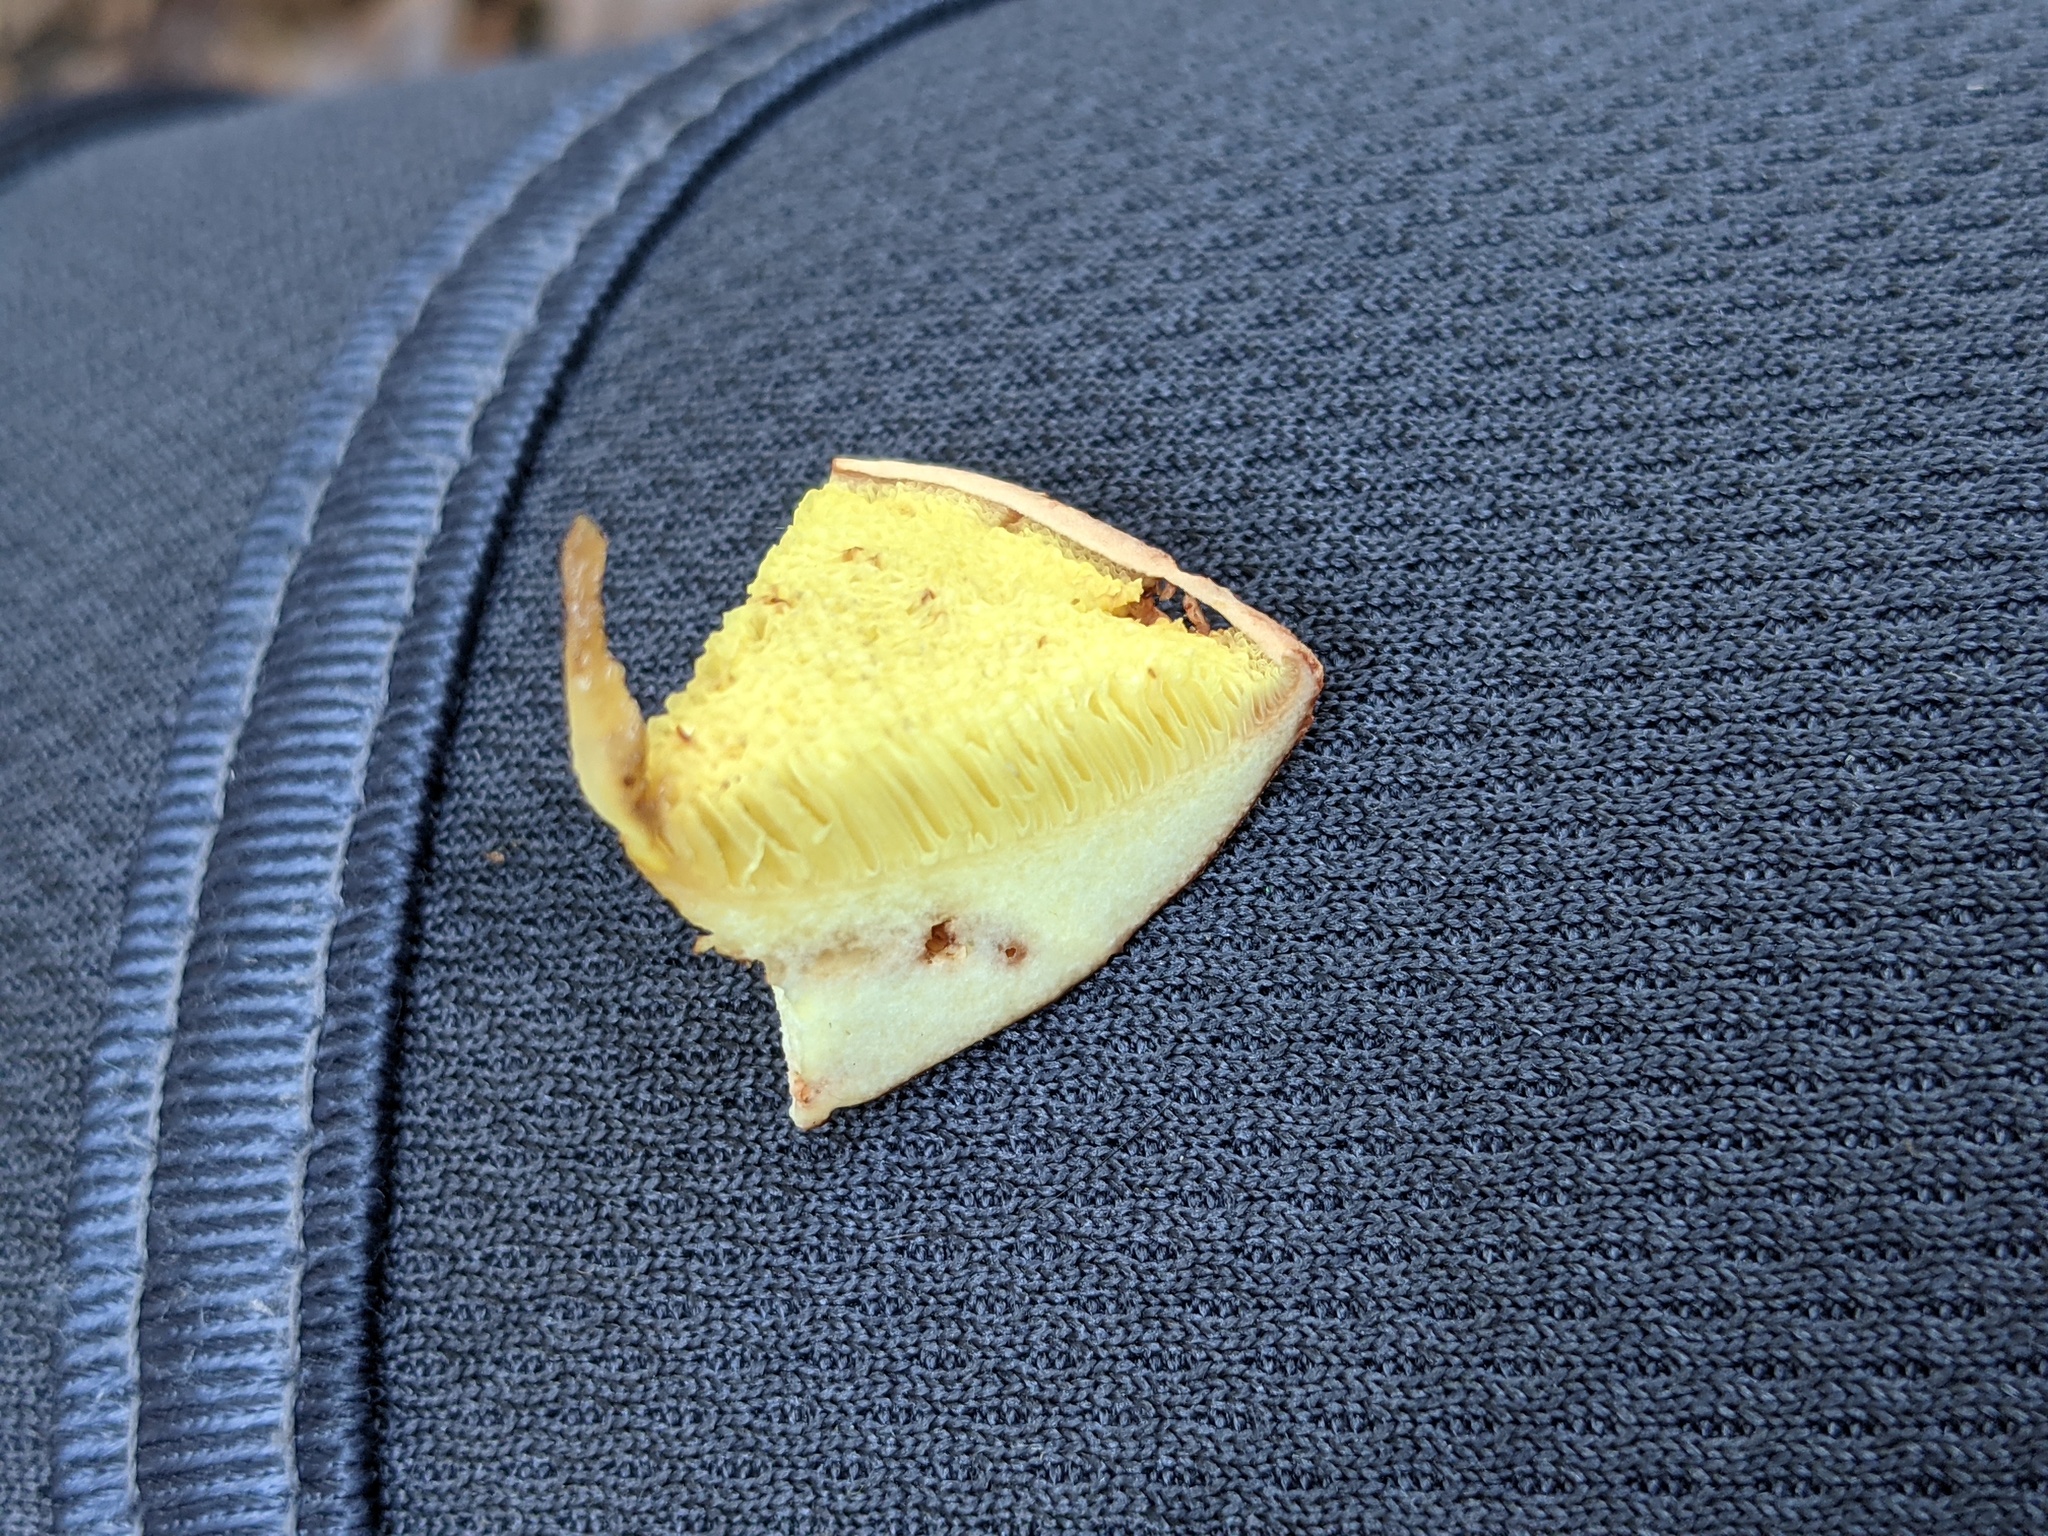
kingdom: Fungi
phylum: Basidiomycota
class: Agaricomycetes
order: Boletales
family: Boletaceae
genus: Aureoboletus
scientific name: Aureoboletus russellii
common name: Russell's bolete
